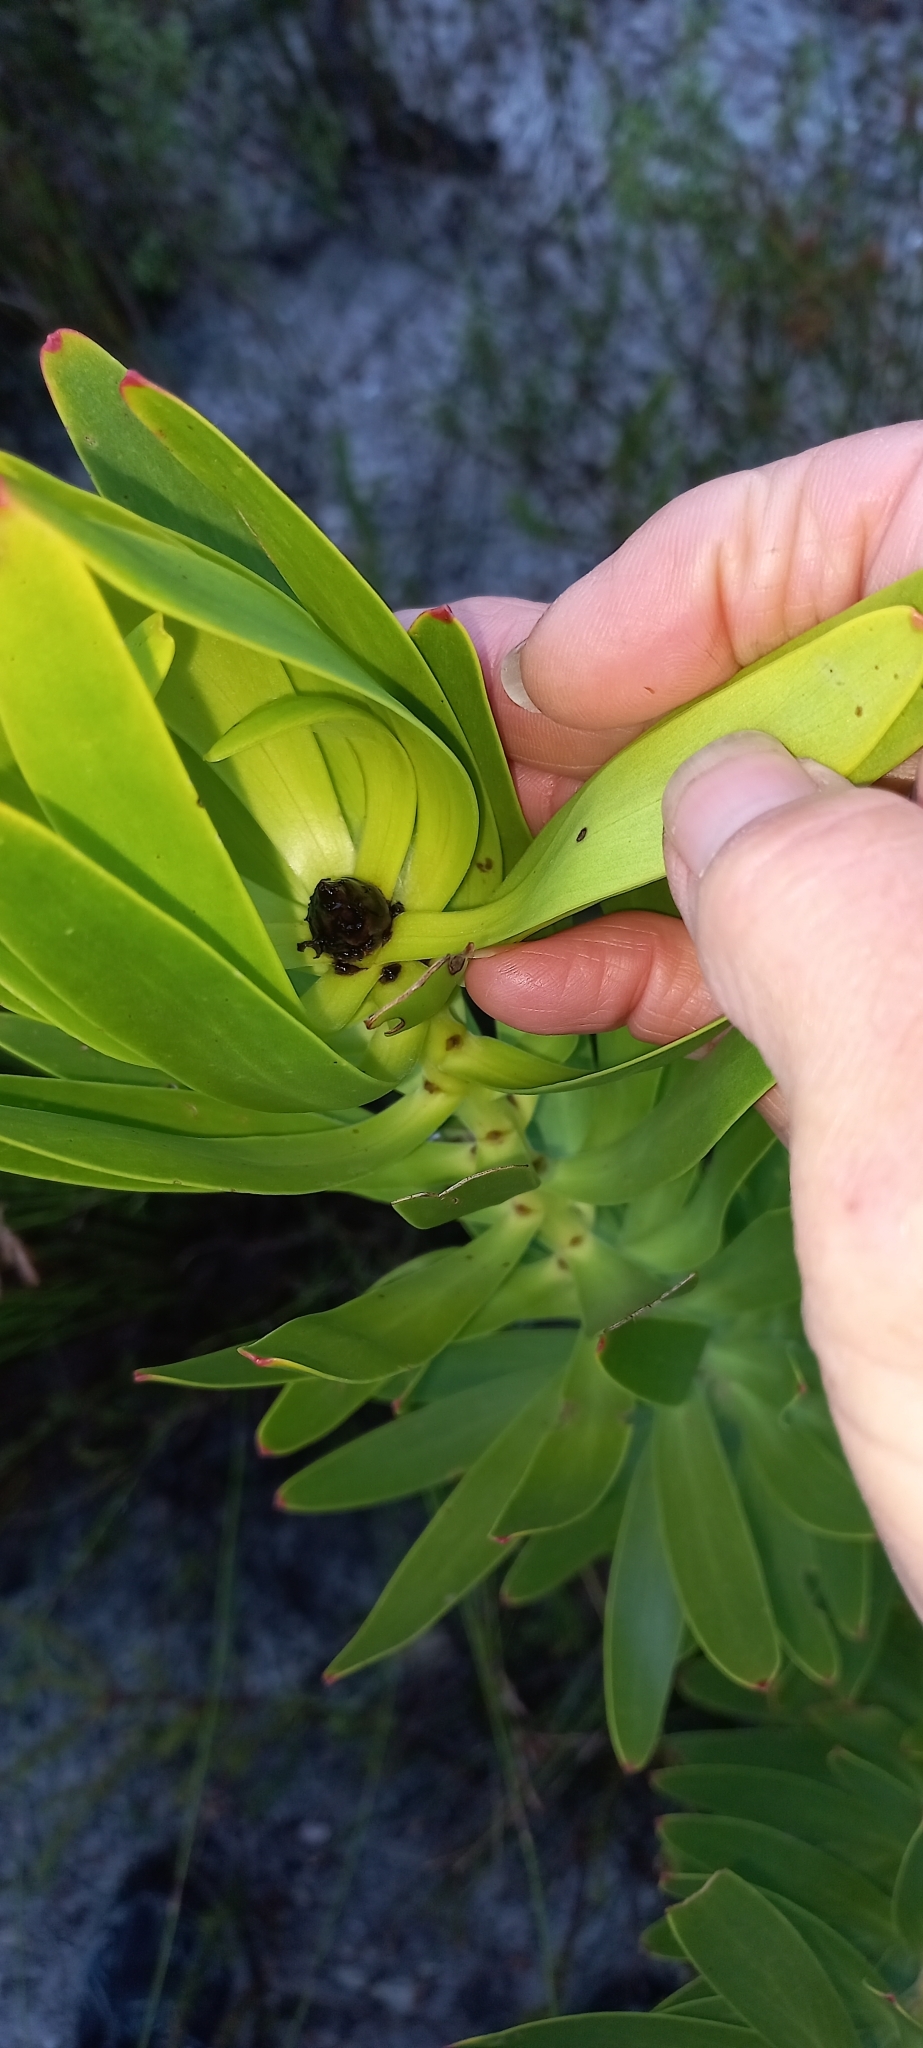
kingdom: Plantae
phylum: Tracheophyta
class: Magnoliopsida
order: Proteales
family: Proteaceae
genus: Leucadendron
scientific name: Leucadendron microcephalum
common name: Oilbract conebush
